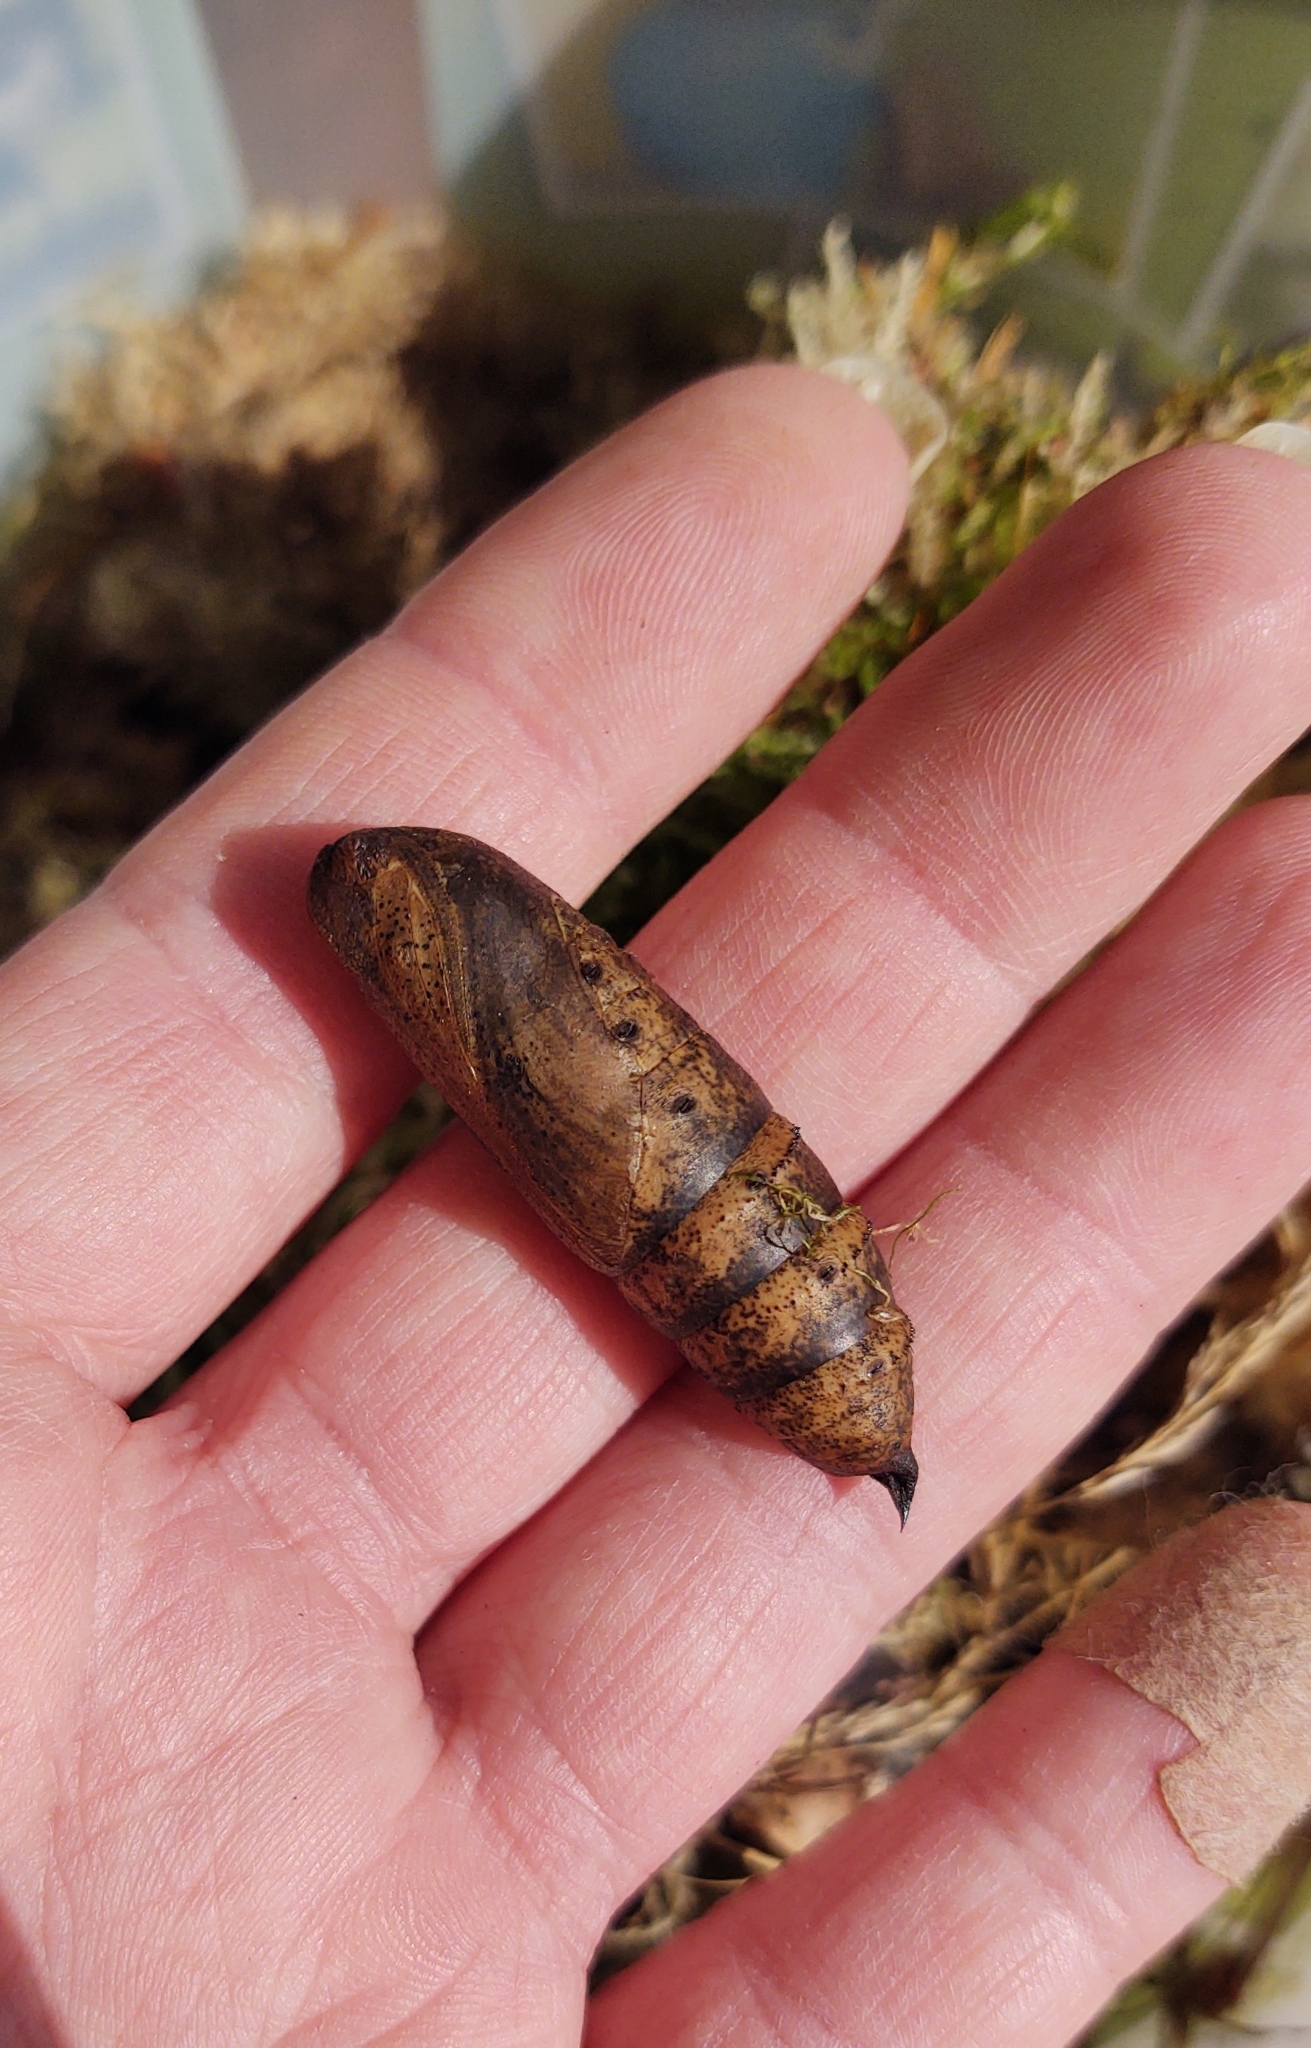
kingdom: Animalia
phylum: Arthropoda
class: Insecta
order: Lepidoptera
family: Sphingidae
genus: Deilephila
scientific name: Deilephila elpenor
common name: Elephant hawk-moth
